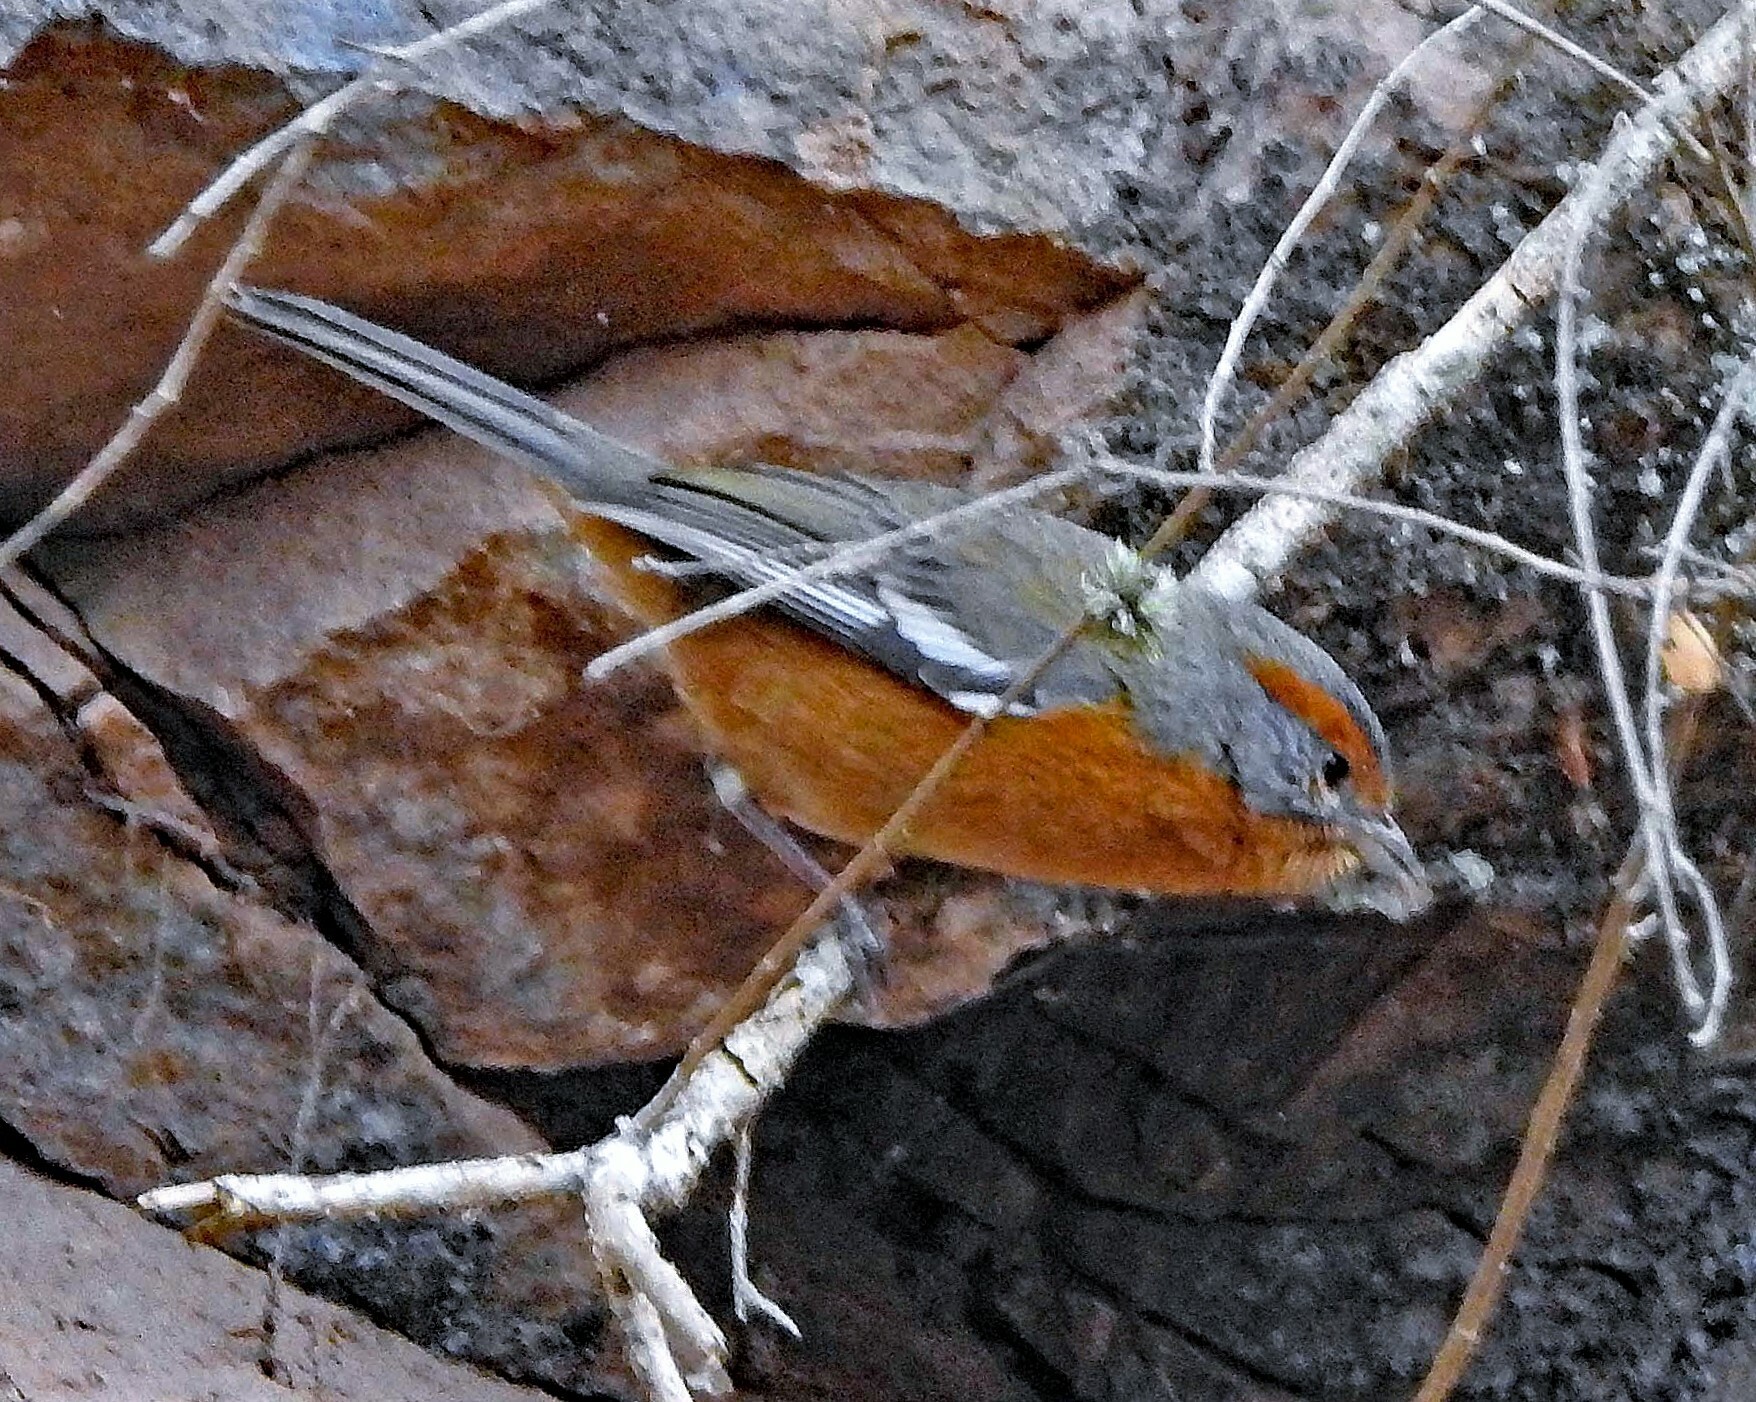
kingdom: Animalia
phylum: Chordata
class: Aves
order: Passeriformes
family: Thraupidae
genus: Microspingus
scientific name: Microspingus erythrophrys
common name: Rusty-browed warbling-finch
